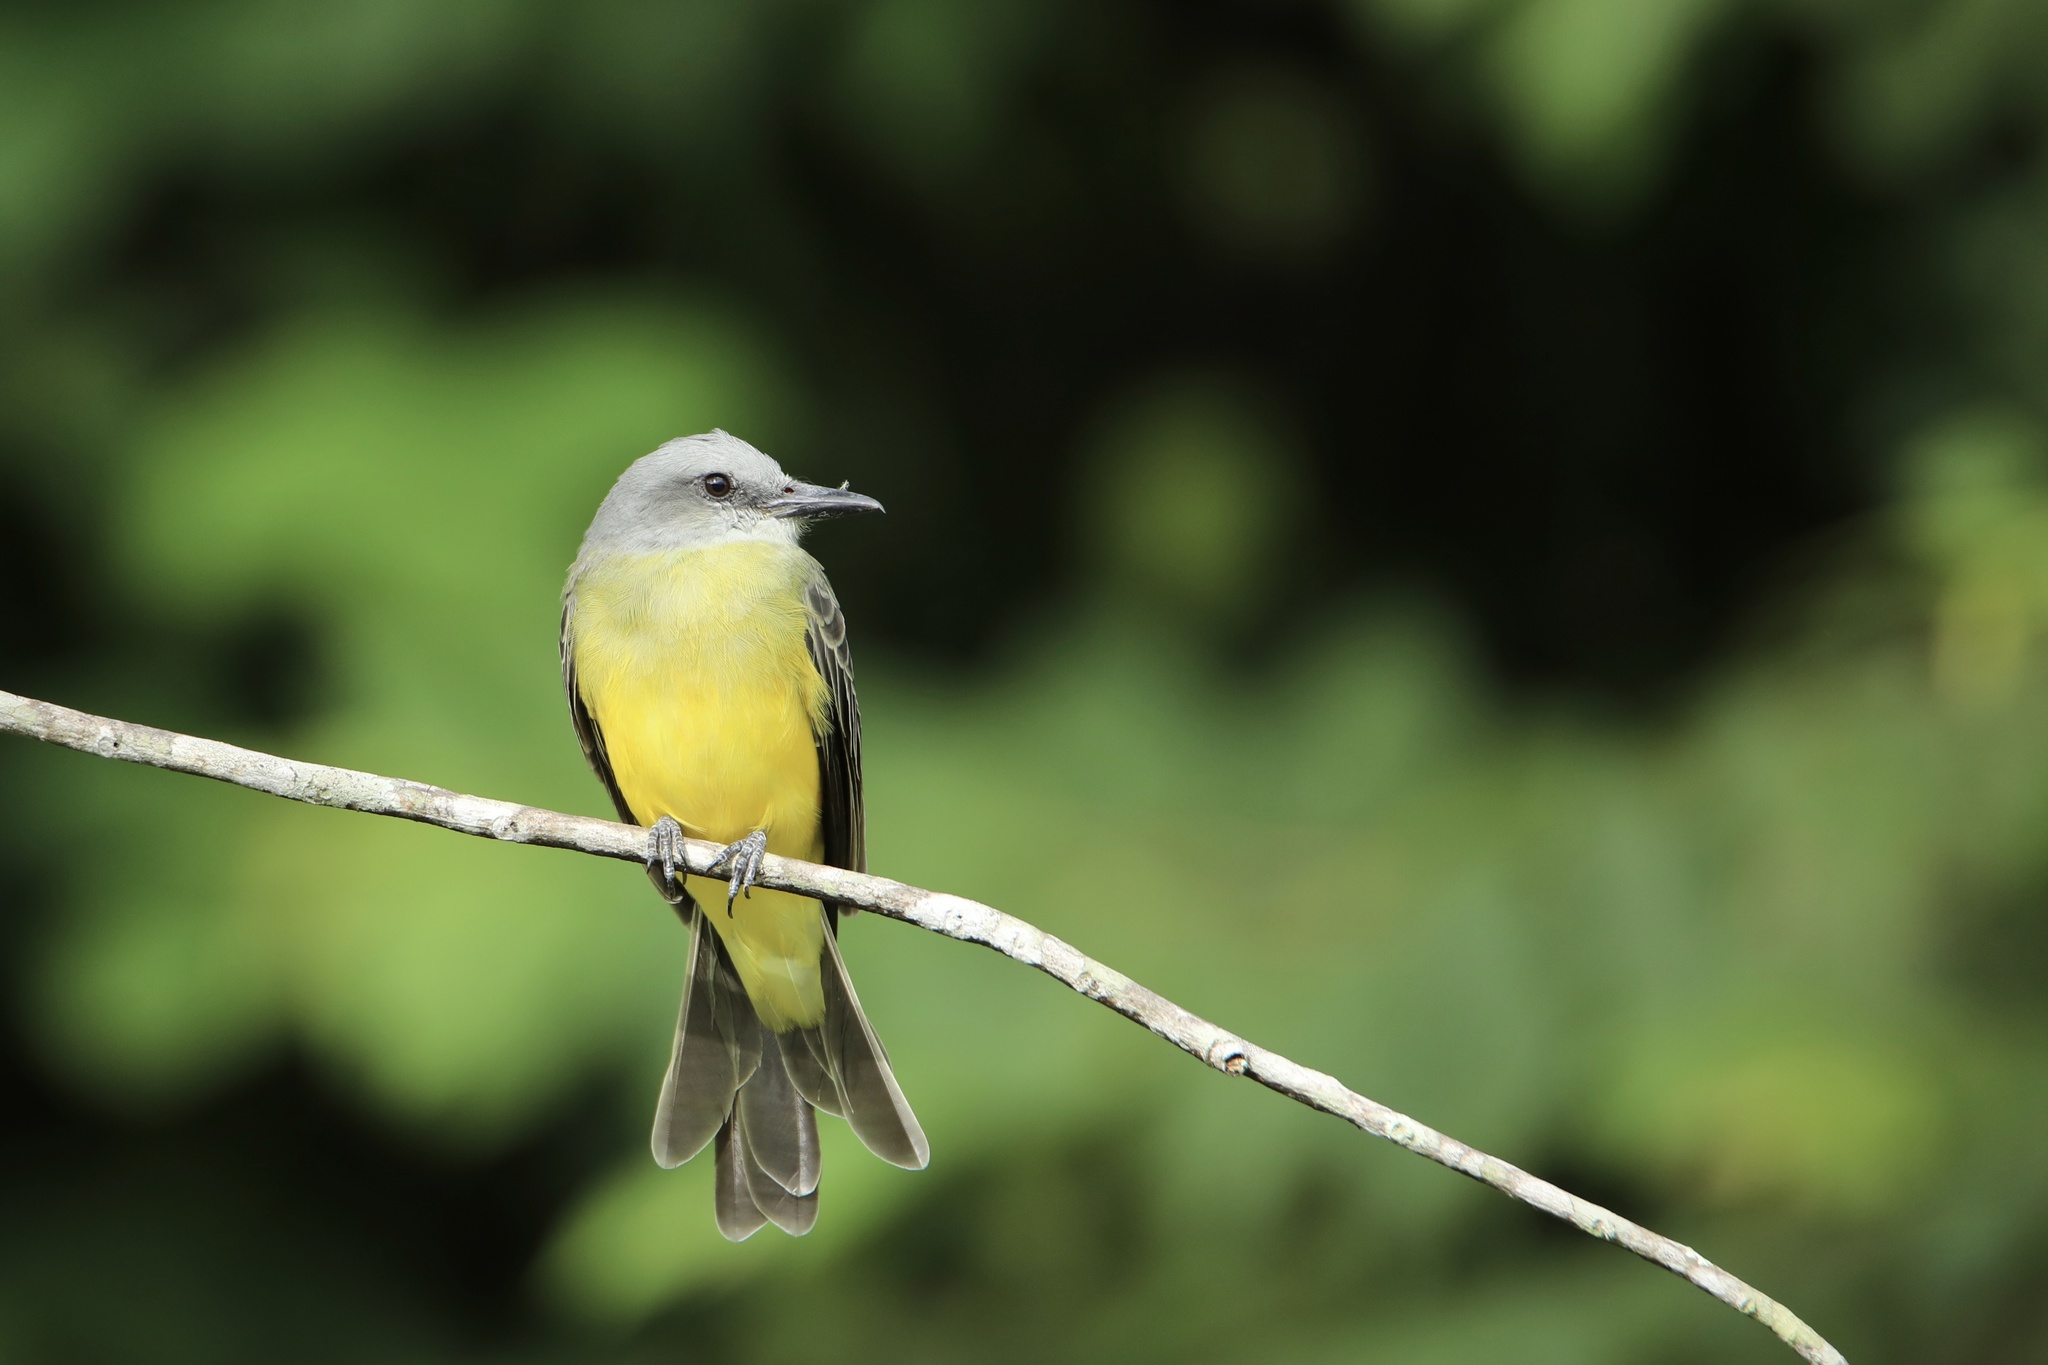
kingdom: Animalia
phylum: Chordata
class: Aves
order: Passeriformes
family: Tyrannidae
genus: Tyrannus
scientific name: Tyrannus melancholicus
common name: Tropical kingbird
